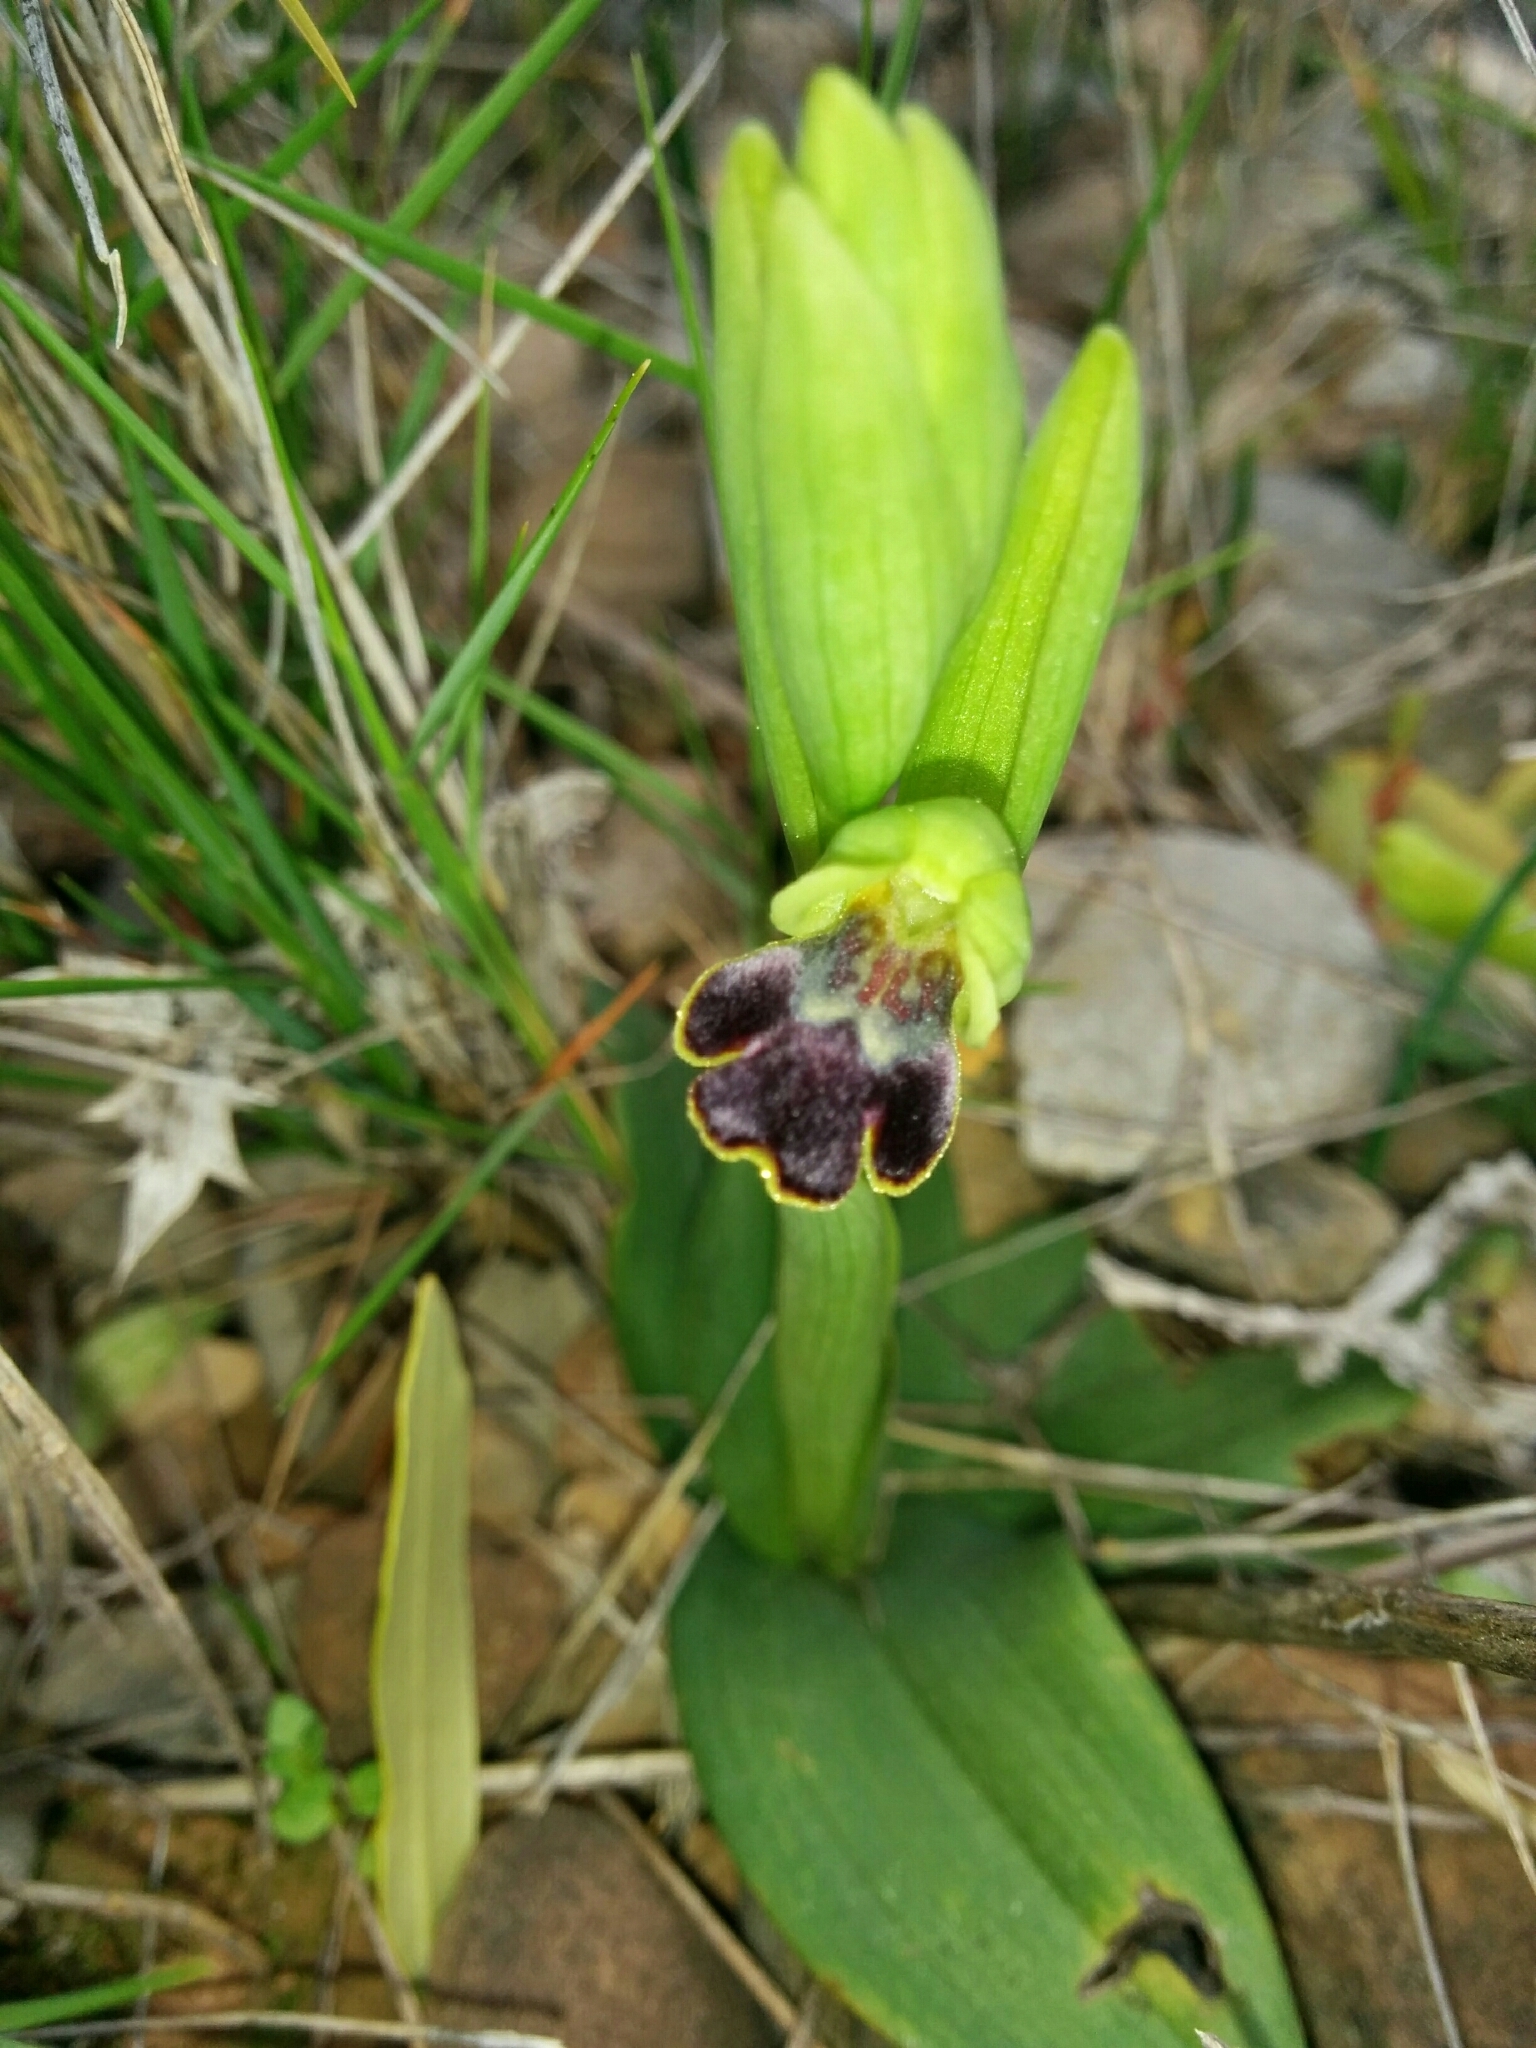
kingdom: Plantae
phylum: Tracheophyta
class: Liliopsida
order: Asparagales
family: Orchidaceae
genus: Ophrys
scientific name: Ophrys fusca
